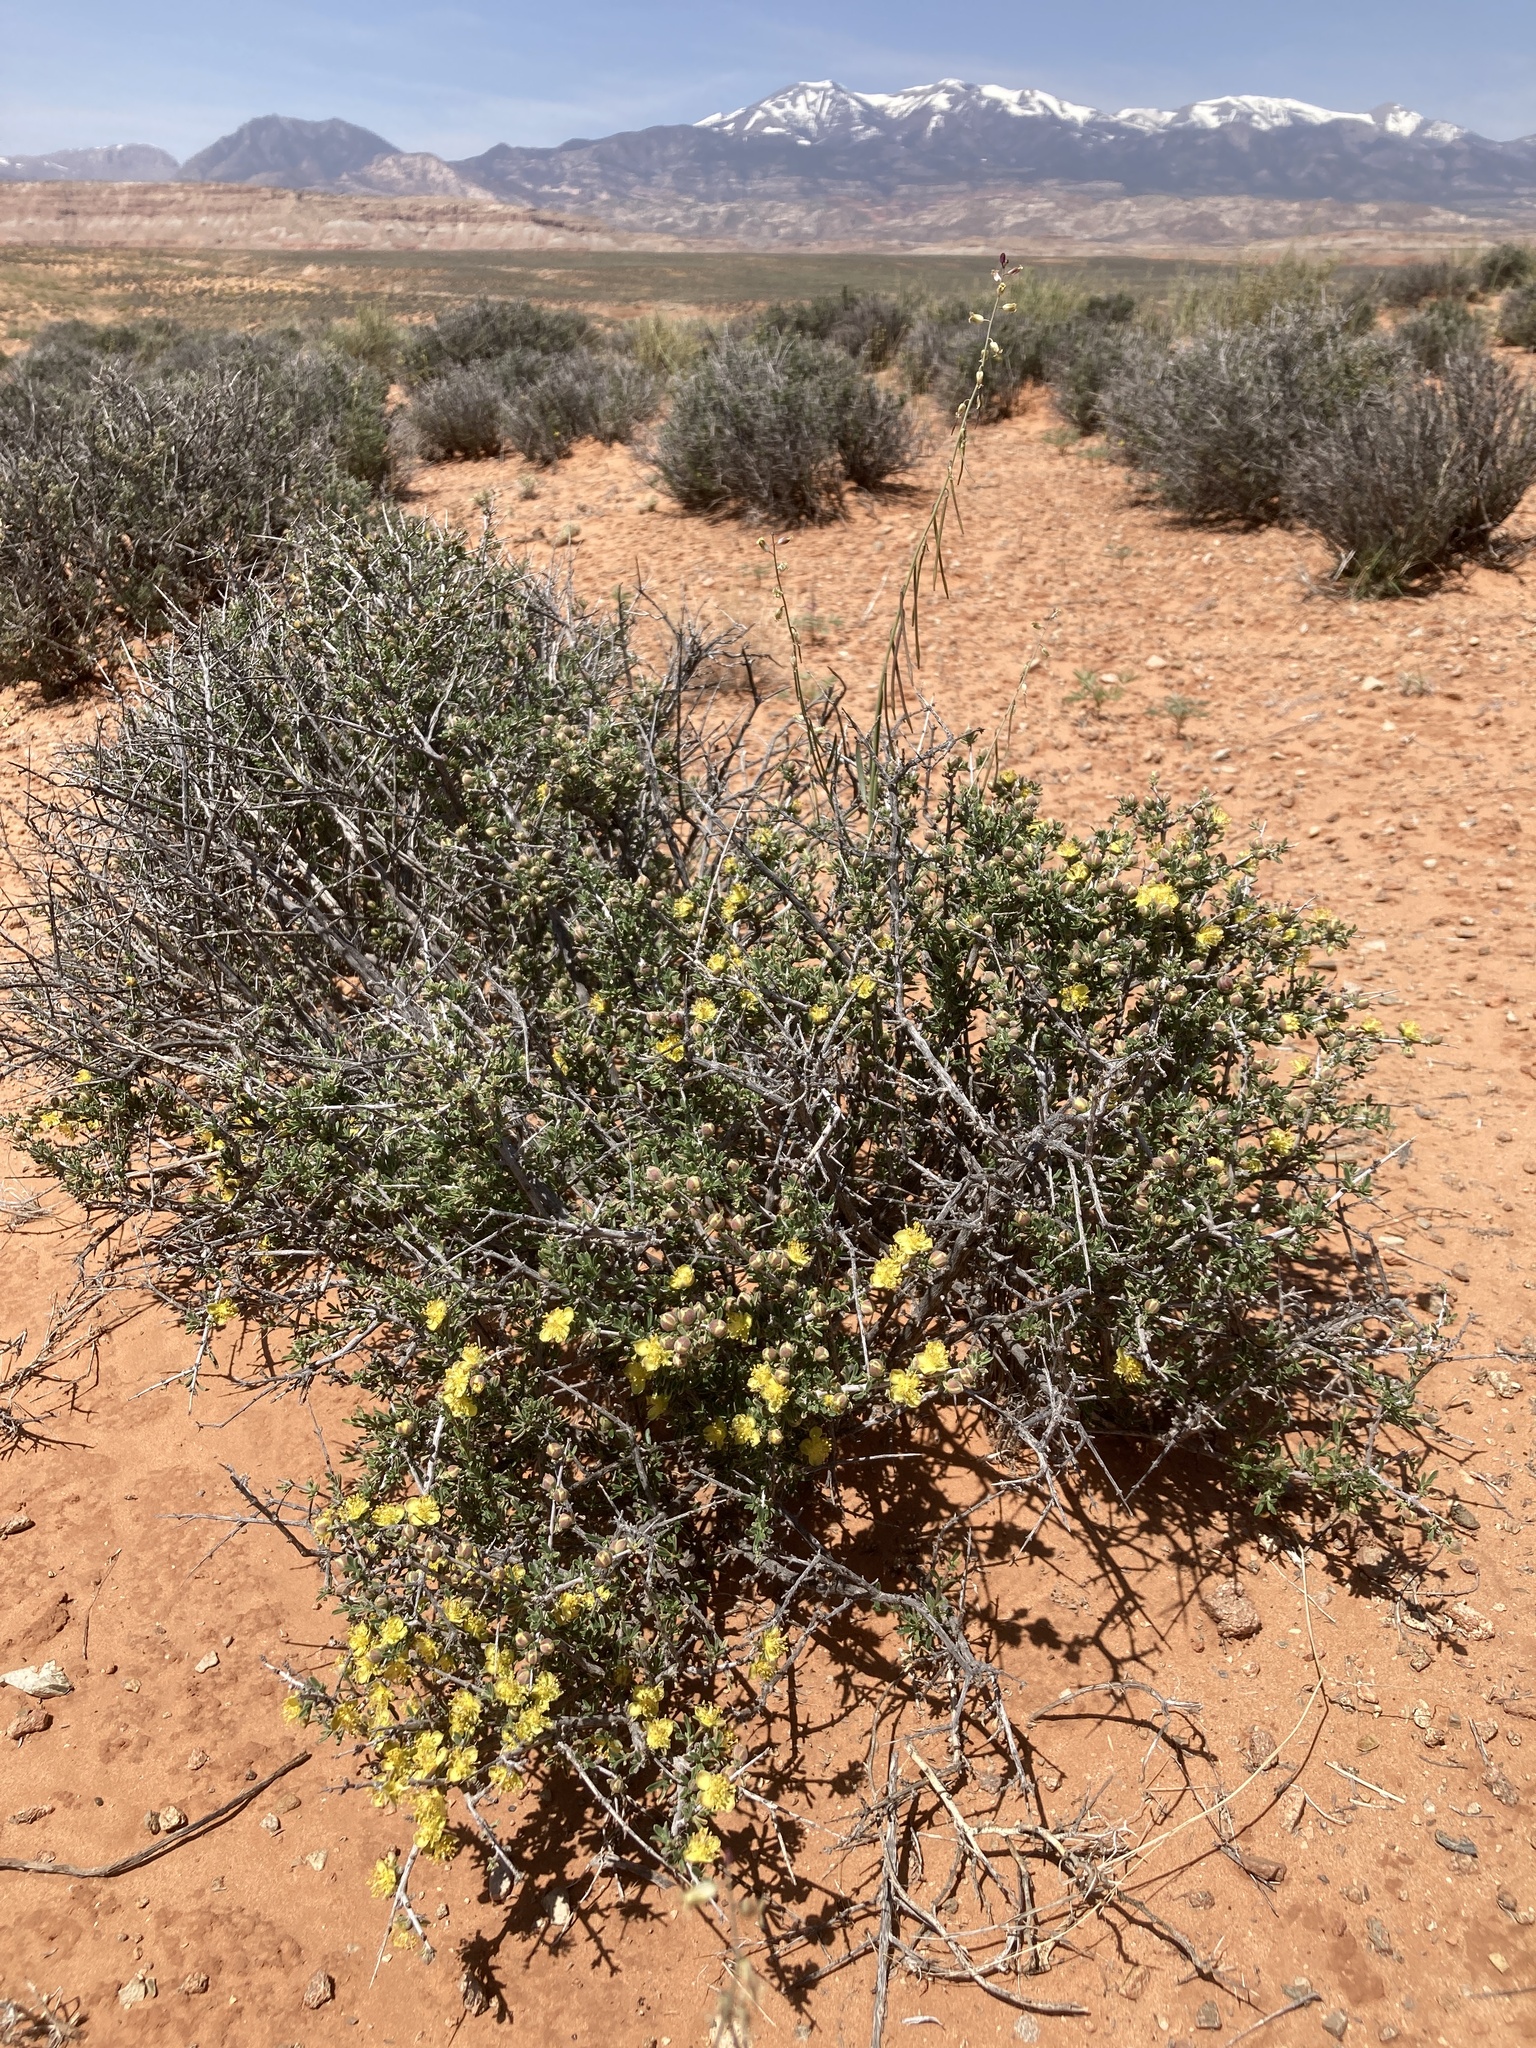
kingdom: Plantae
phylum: Tracheophyta
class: Magnoliopsida
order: Rosales
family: Rosaceae
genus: Coleogyne
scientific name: Coleogyne ramosissima
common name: Blackbrush
